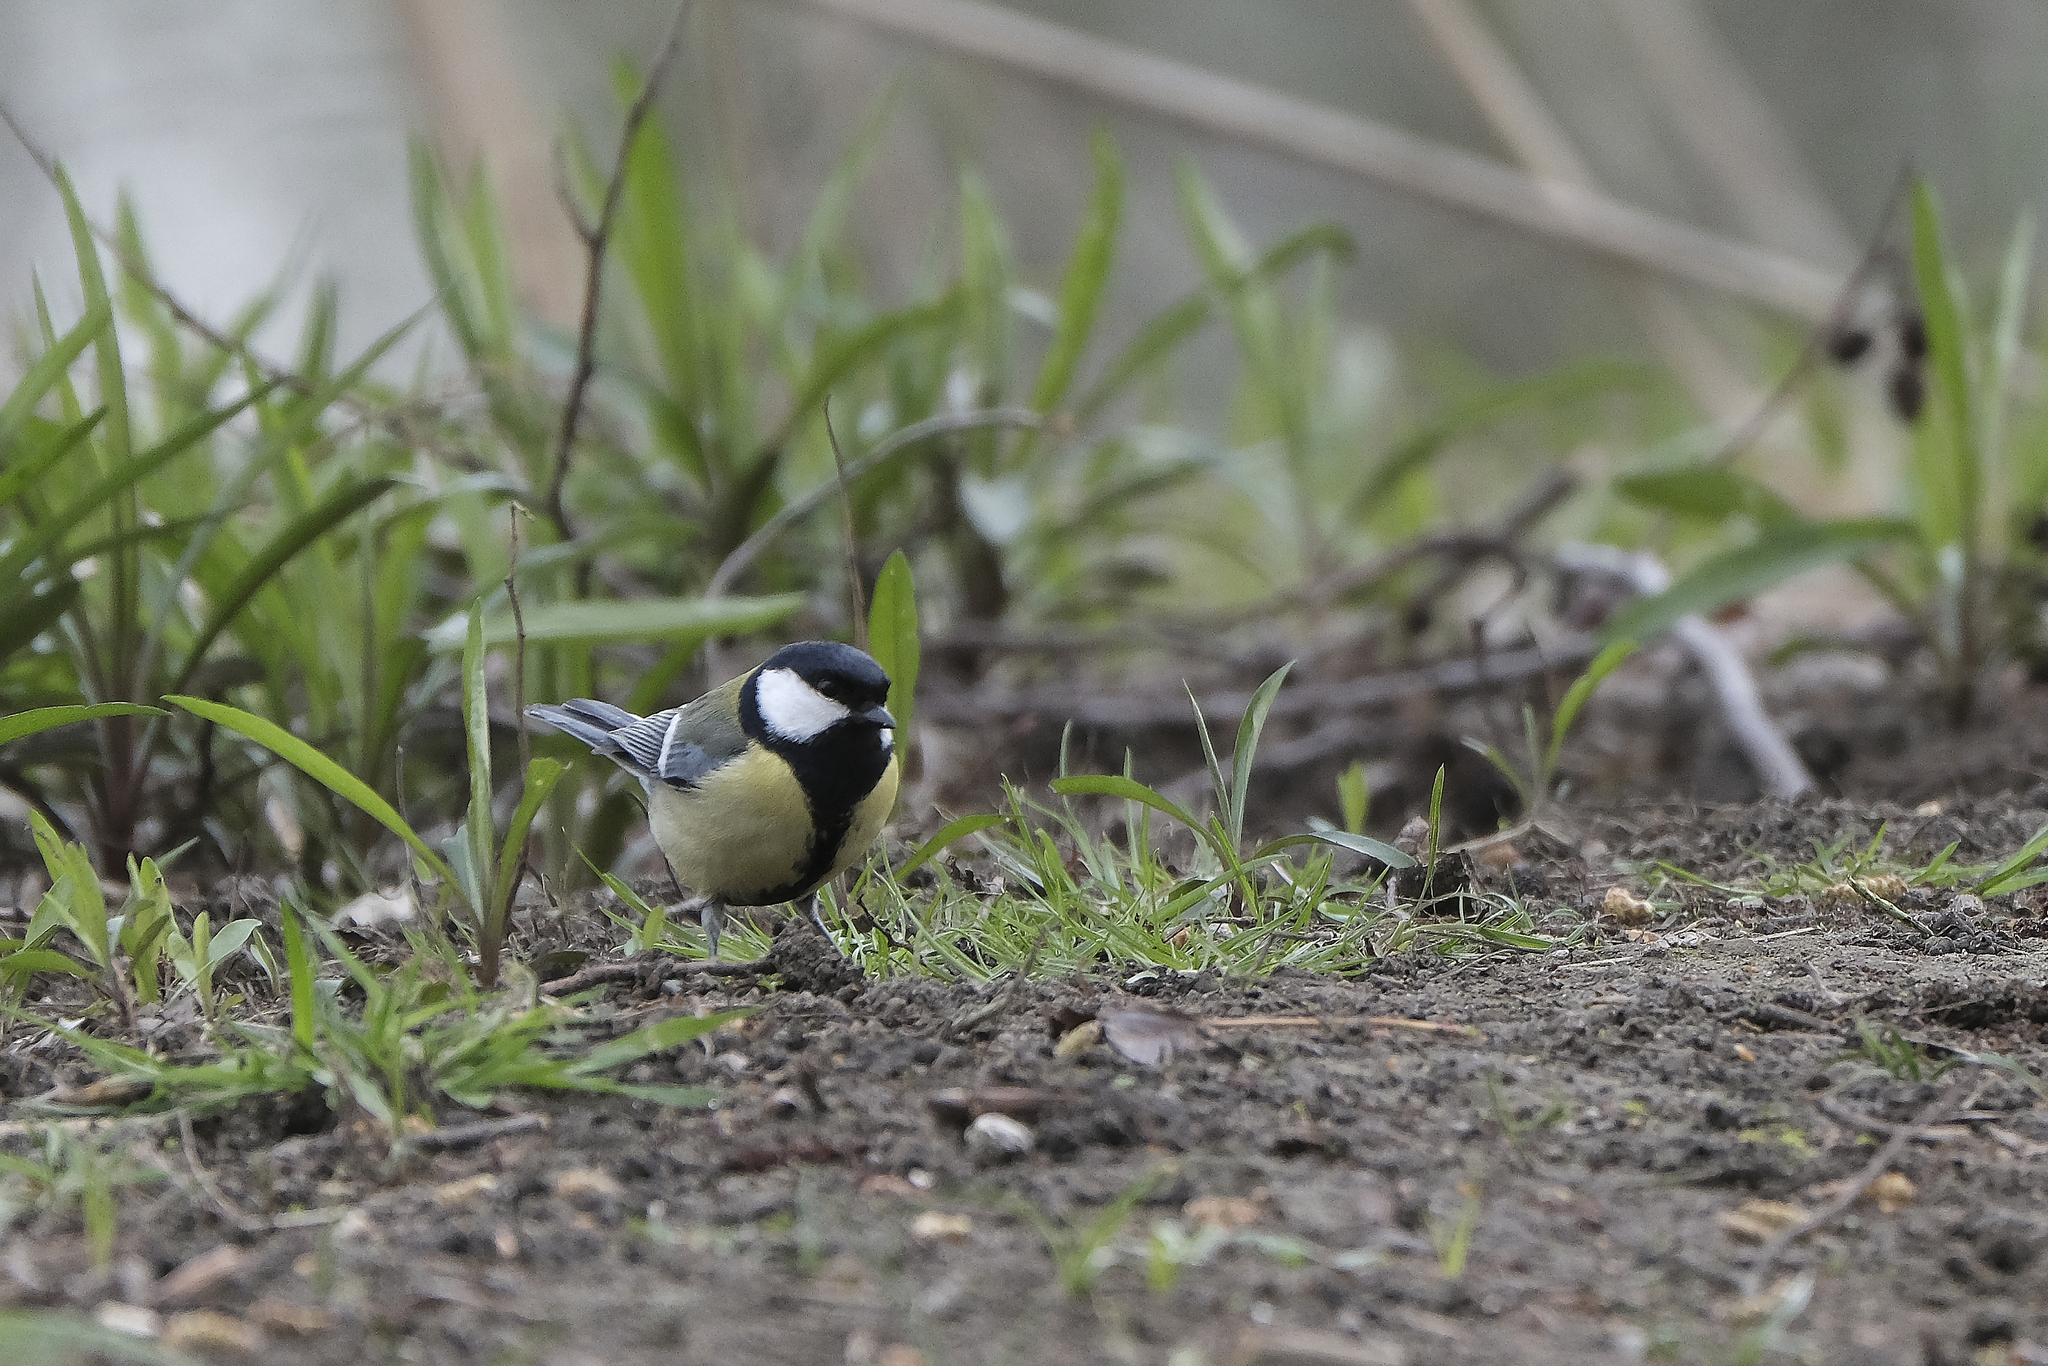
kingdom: Animalia
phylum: Chordata
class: Aves
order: Passeriformes
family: Paridae
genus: Parus
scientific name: Parus major
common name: Great tit
